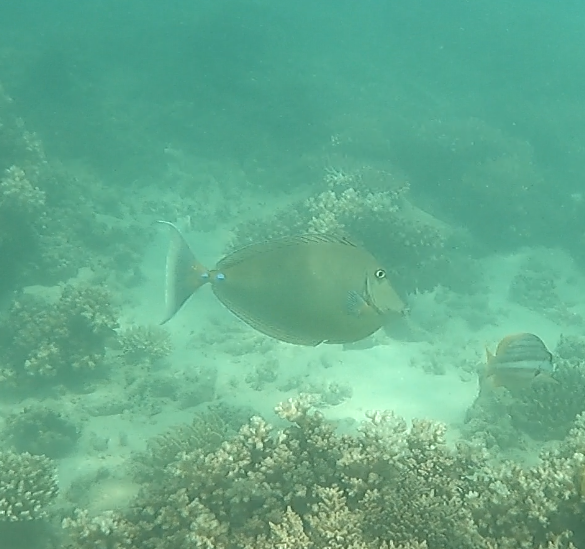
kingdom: Animalia
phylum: Chordata
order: Perciformes
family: Acanthuridae
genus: Naso
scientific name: Naso unicornis
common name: Bluespine unicornfish
